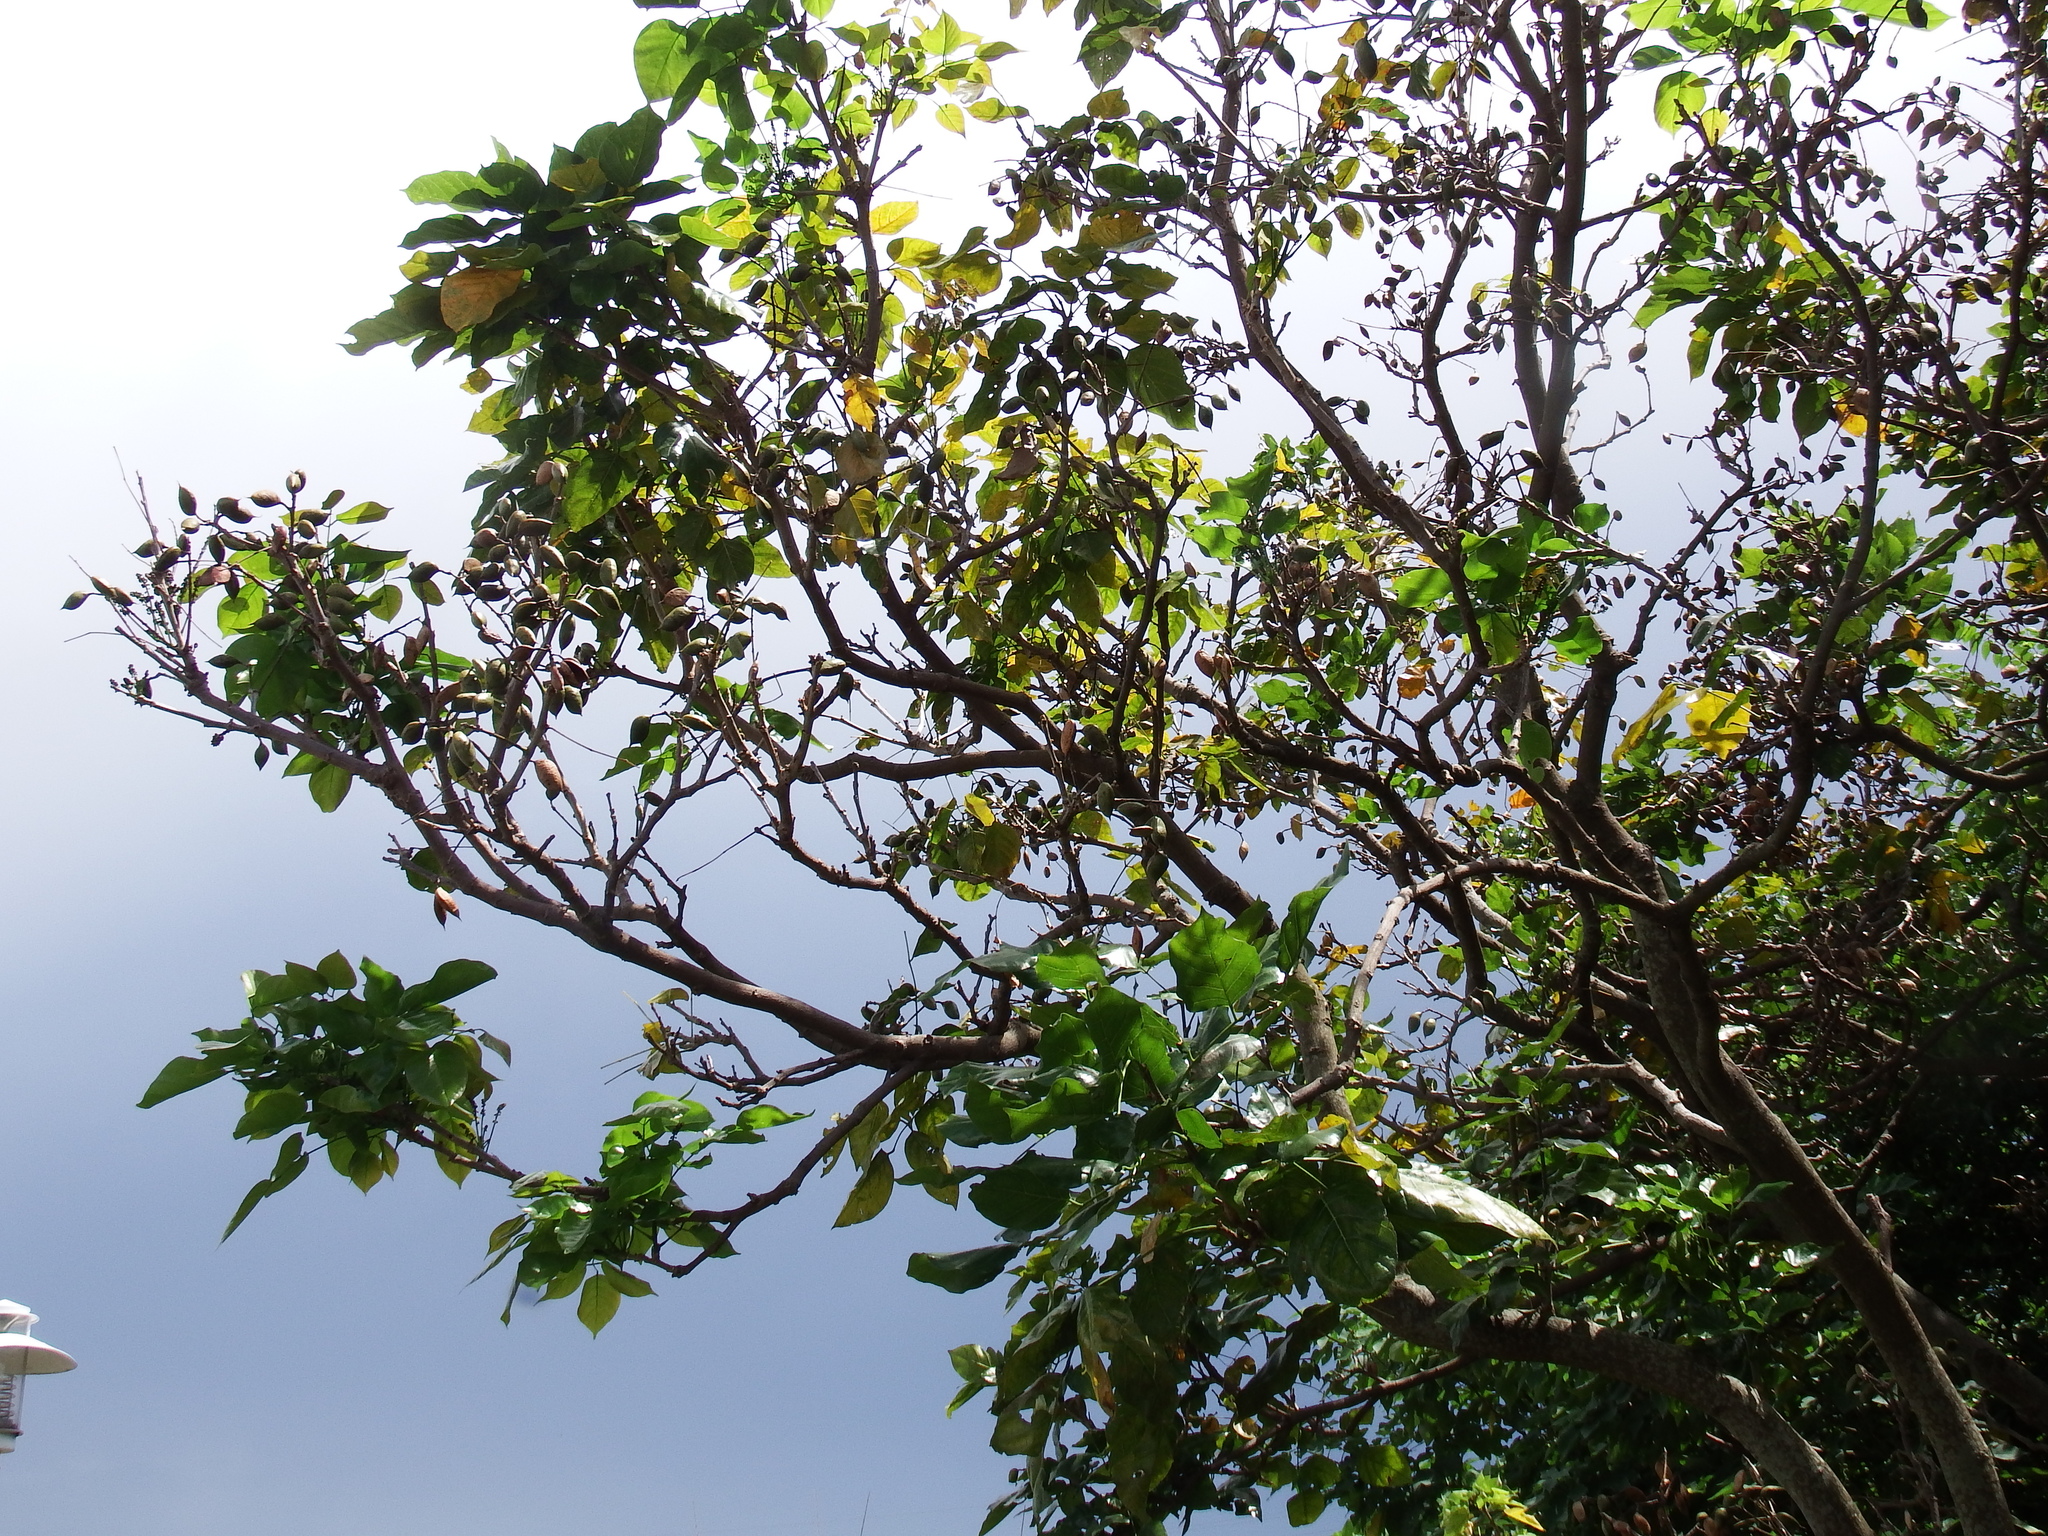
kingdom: Plantae
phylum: Tracheophyta
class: Magnoliopsida
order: Fabales
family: Fabaceae
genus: Pongamia
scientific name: Pongamia pinnata
